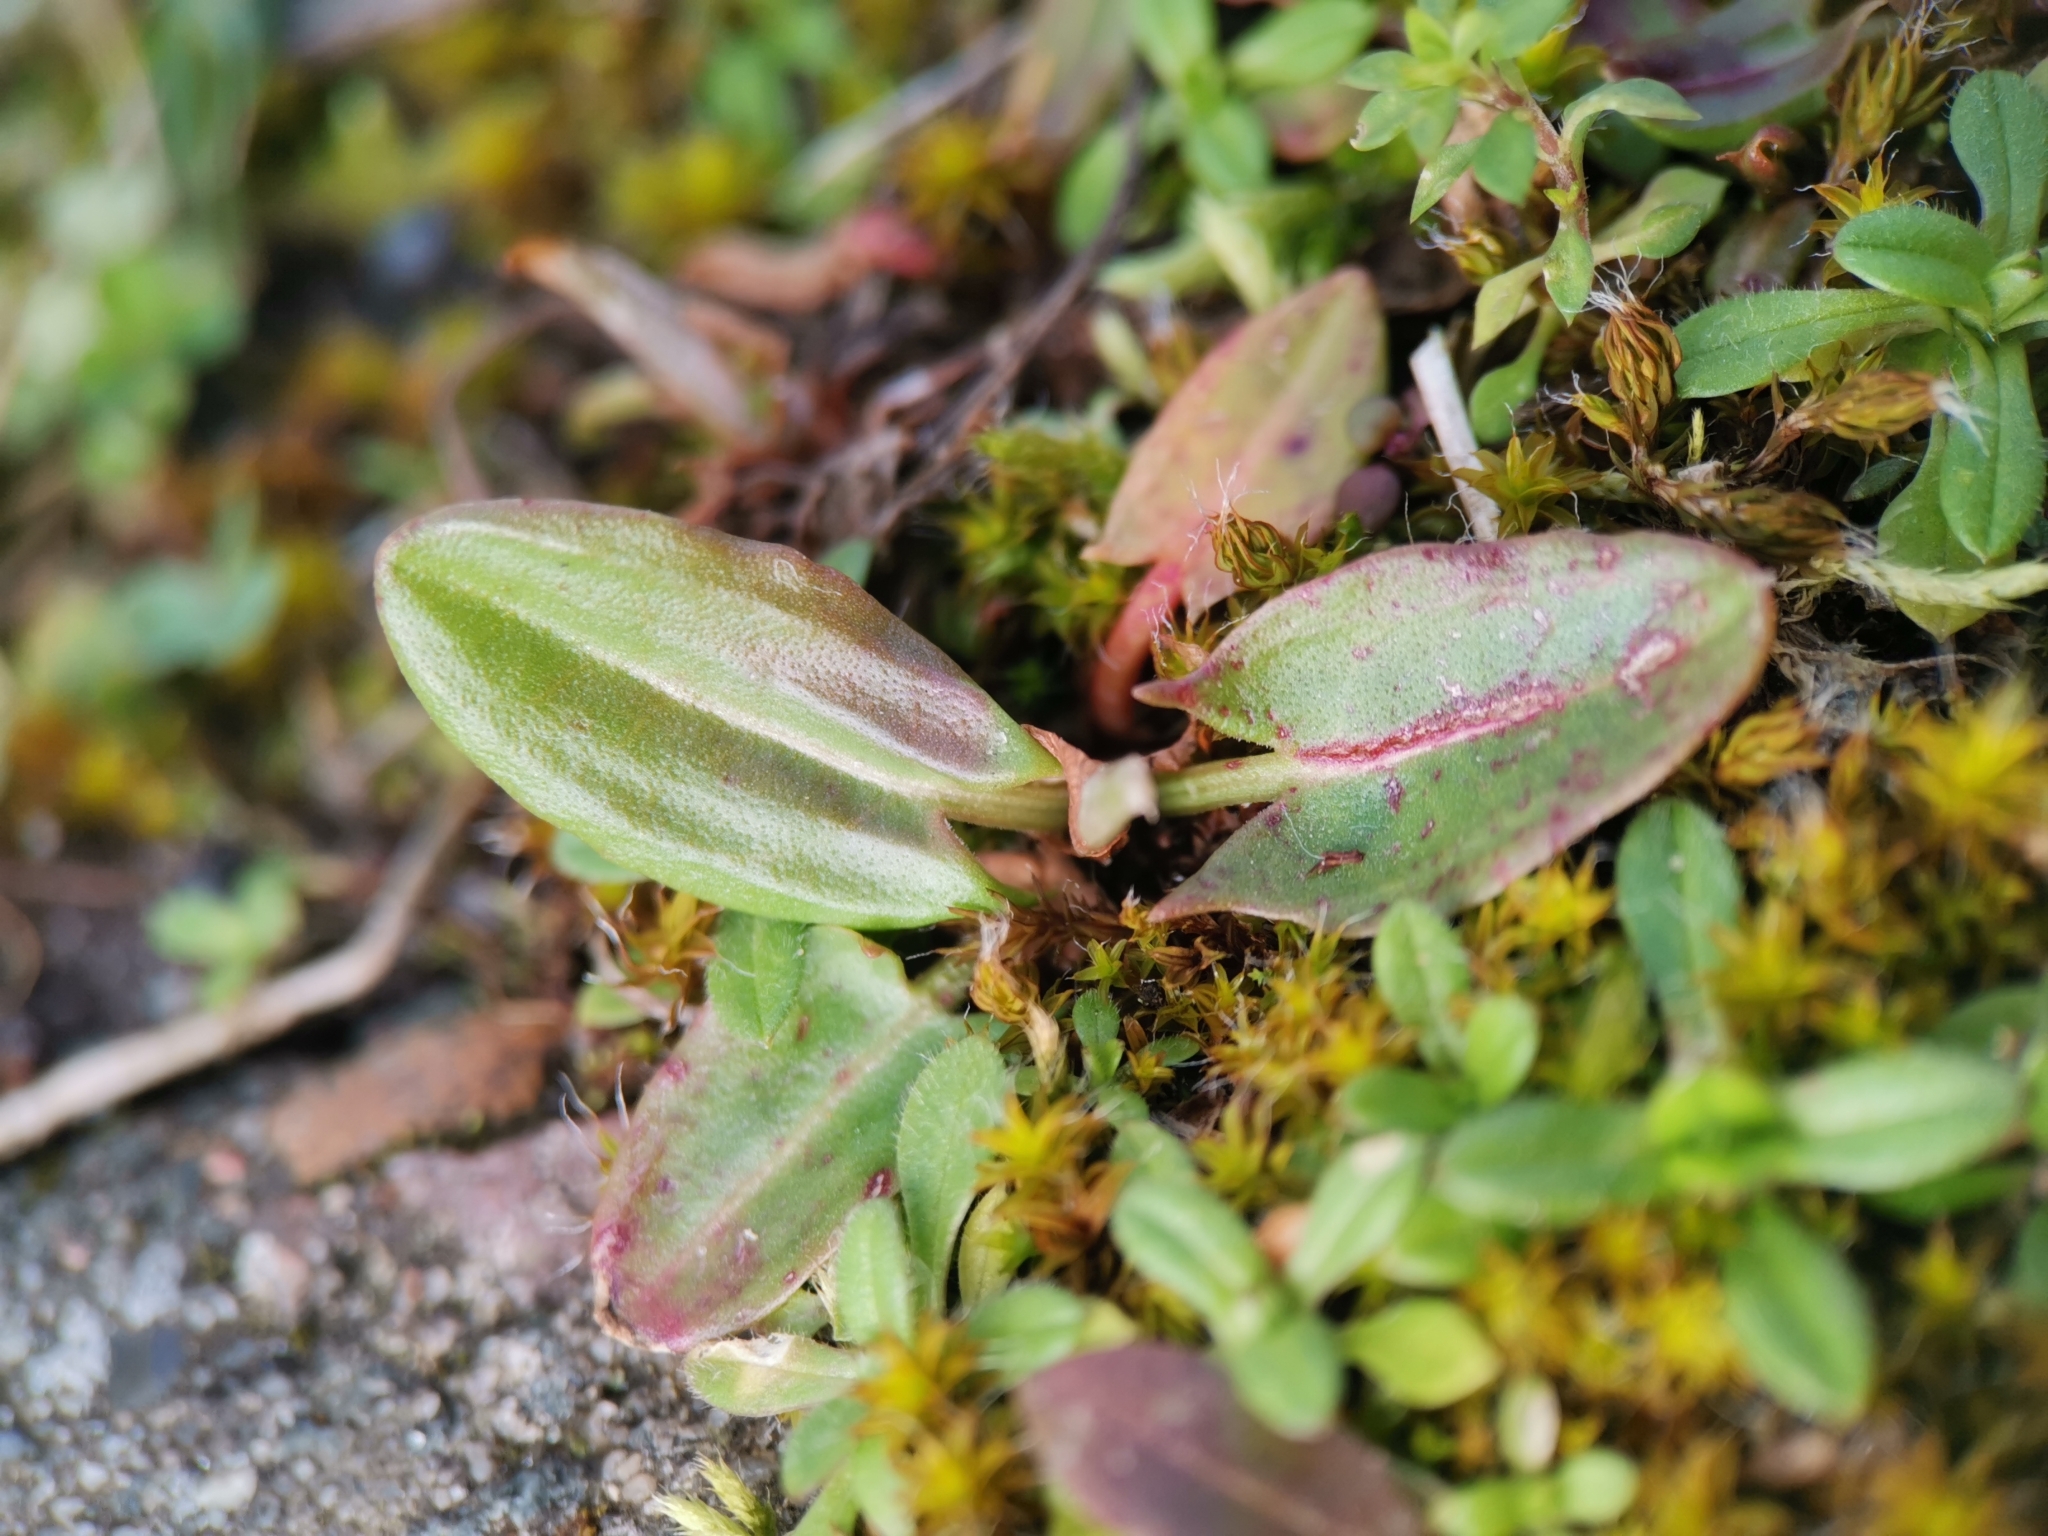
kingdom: Plantae
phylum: Tracheophyta
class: Magnoliopsida
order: Caryophyllales
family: Polygonaceae
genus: Rumex
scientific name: Rumex acetosa
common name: Garden sorrel
